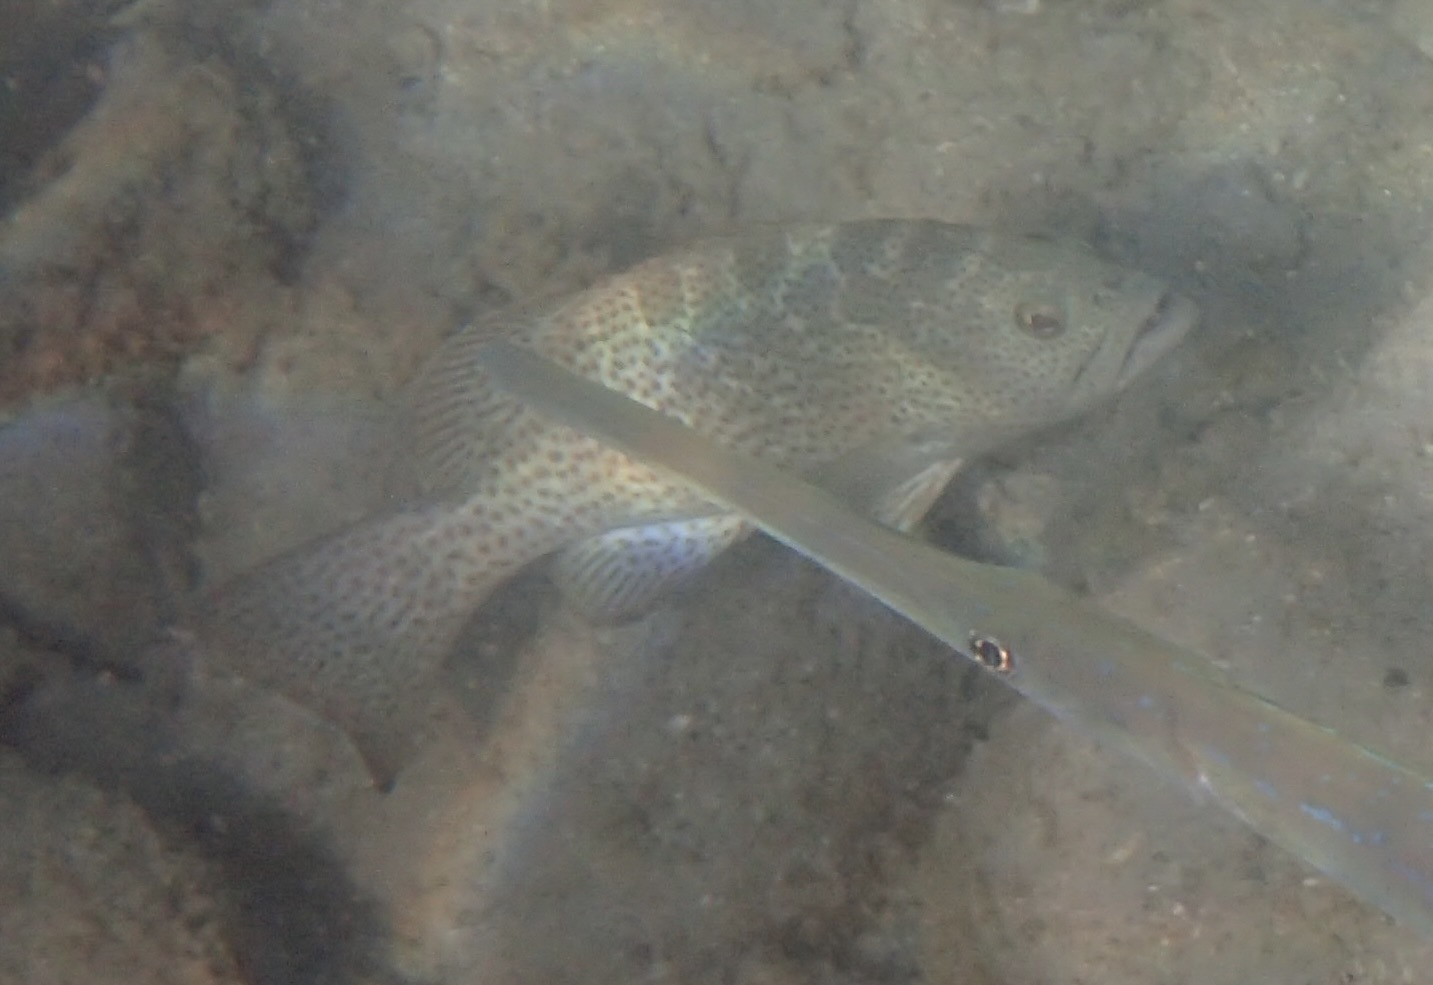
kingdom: Animalia
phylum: Chordata
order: Perciformes
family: Serranidae
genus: Mycteroperca
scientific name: Mycteroperca rosacea
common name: Leopard grouper
